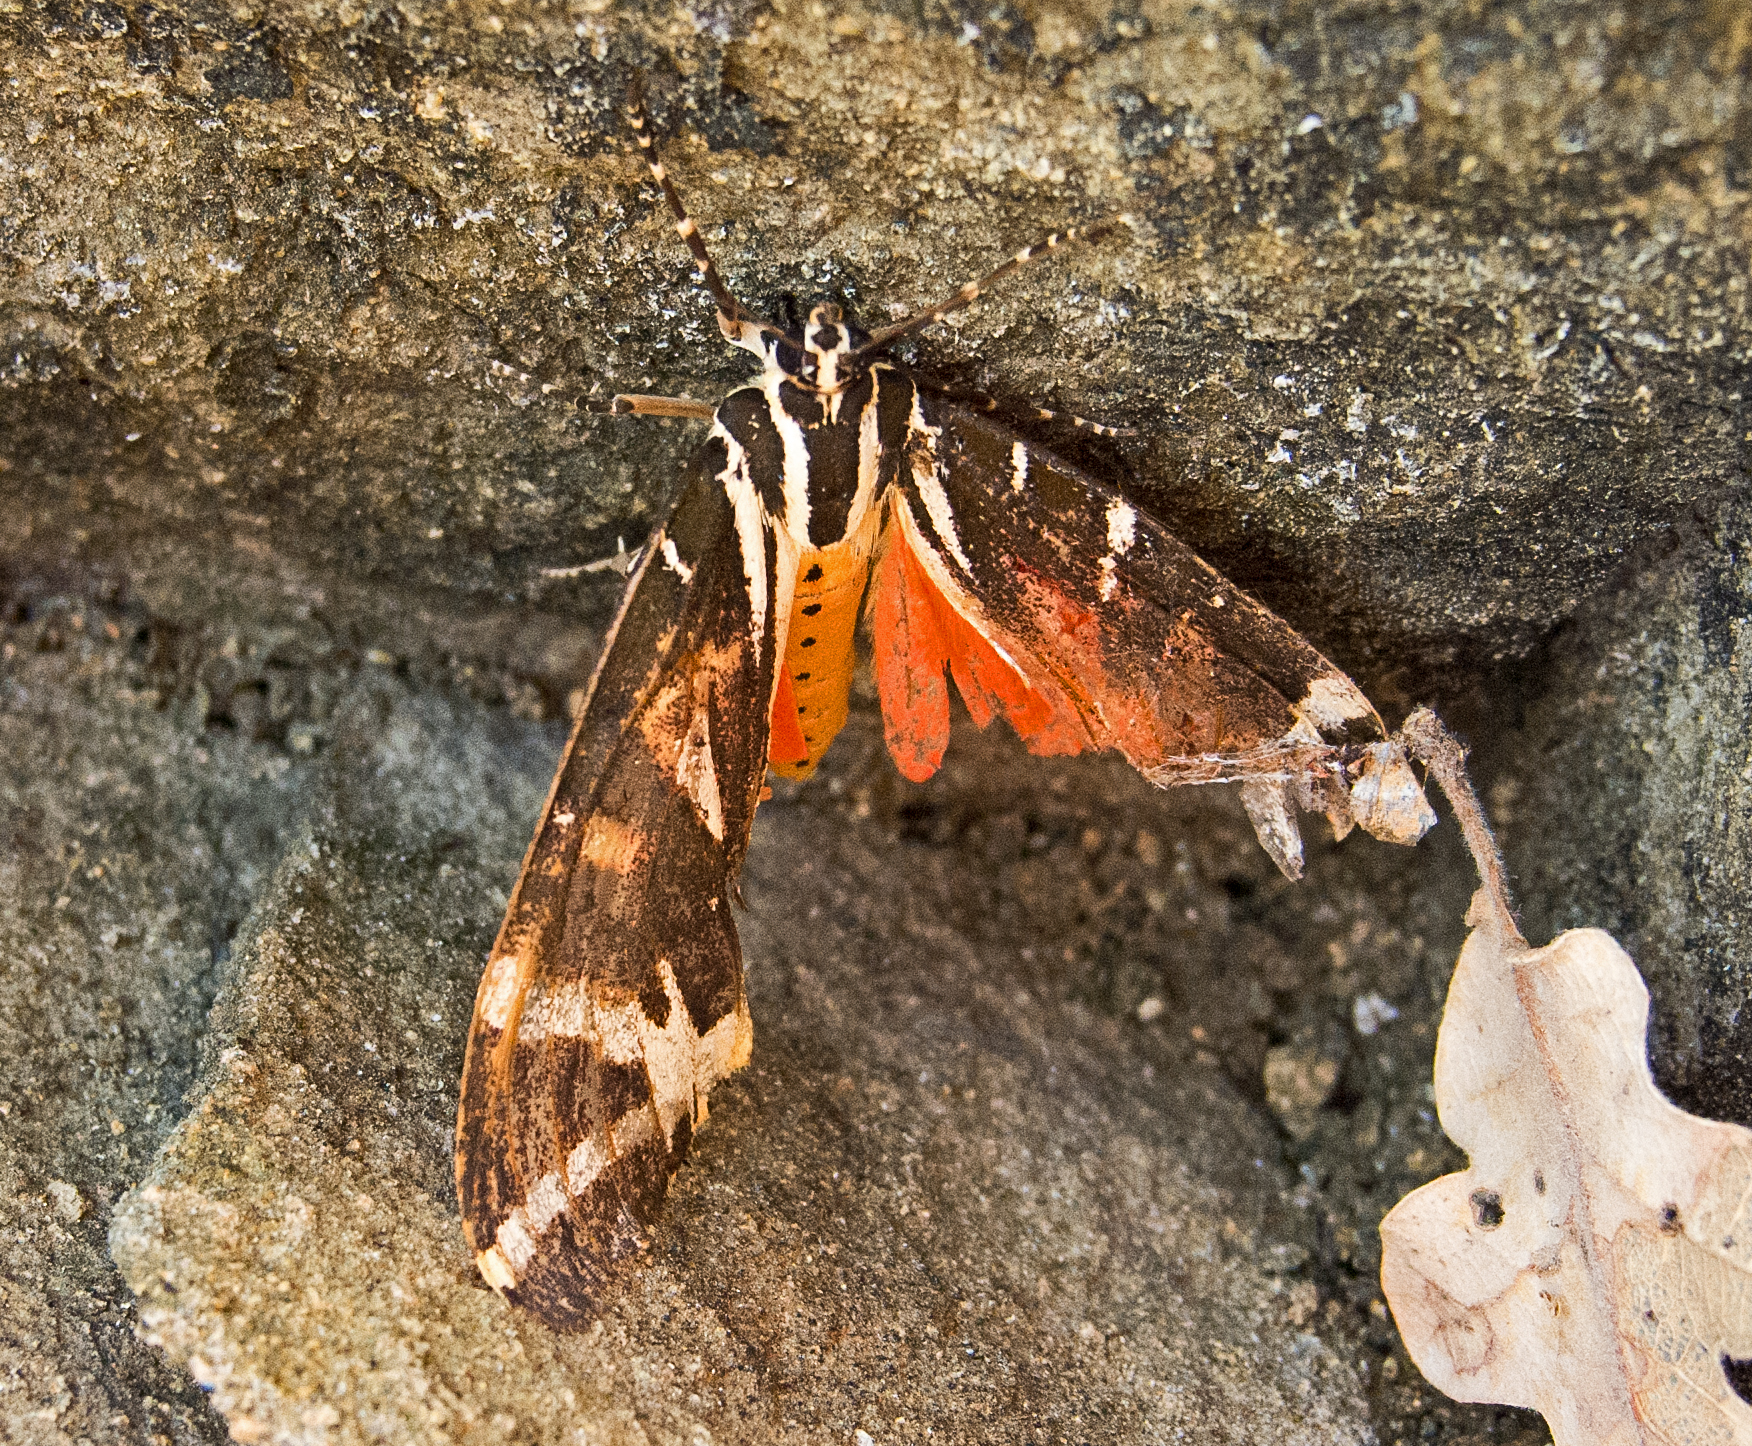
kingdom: Animalia
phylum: Arthropoda
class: Insecta
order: Lepidoptera
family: Erebidae
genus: Euplagia
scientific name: Euplagia quadripunctaria
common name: Jersey tiger
